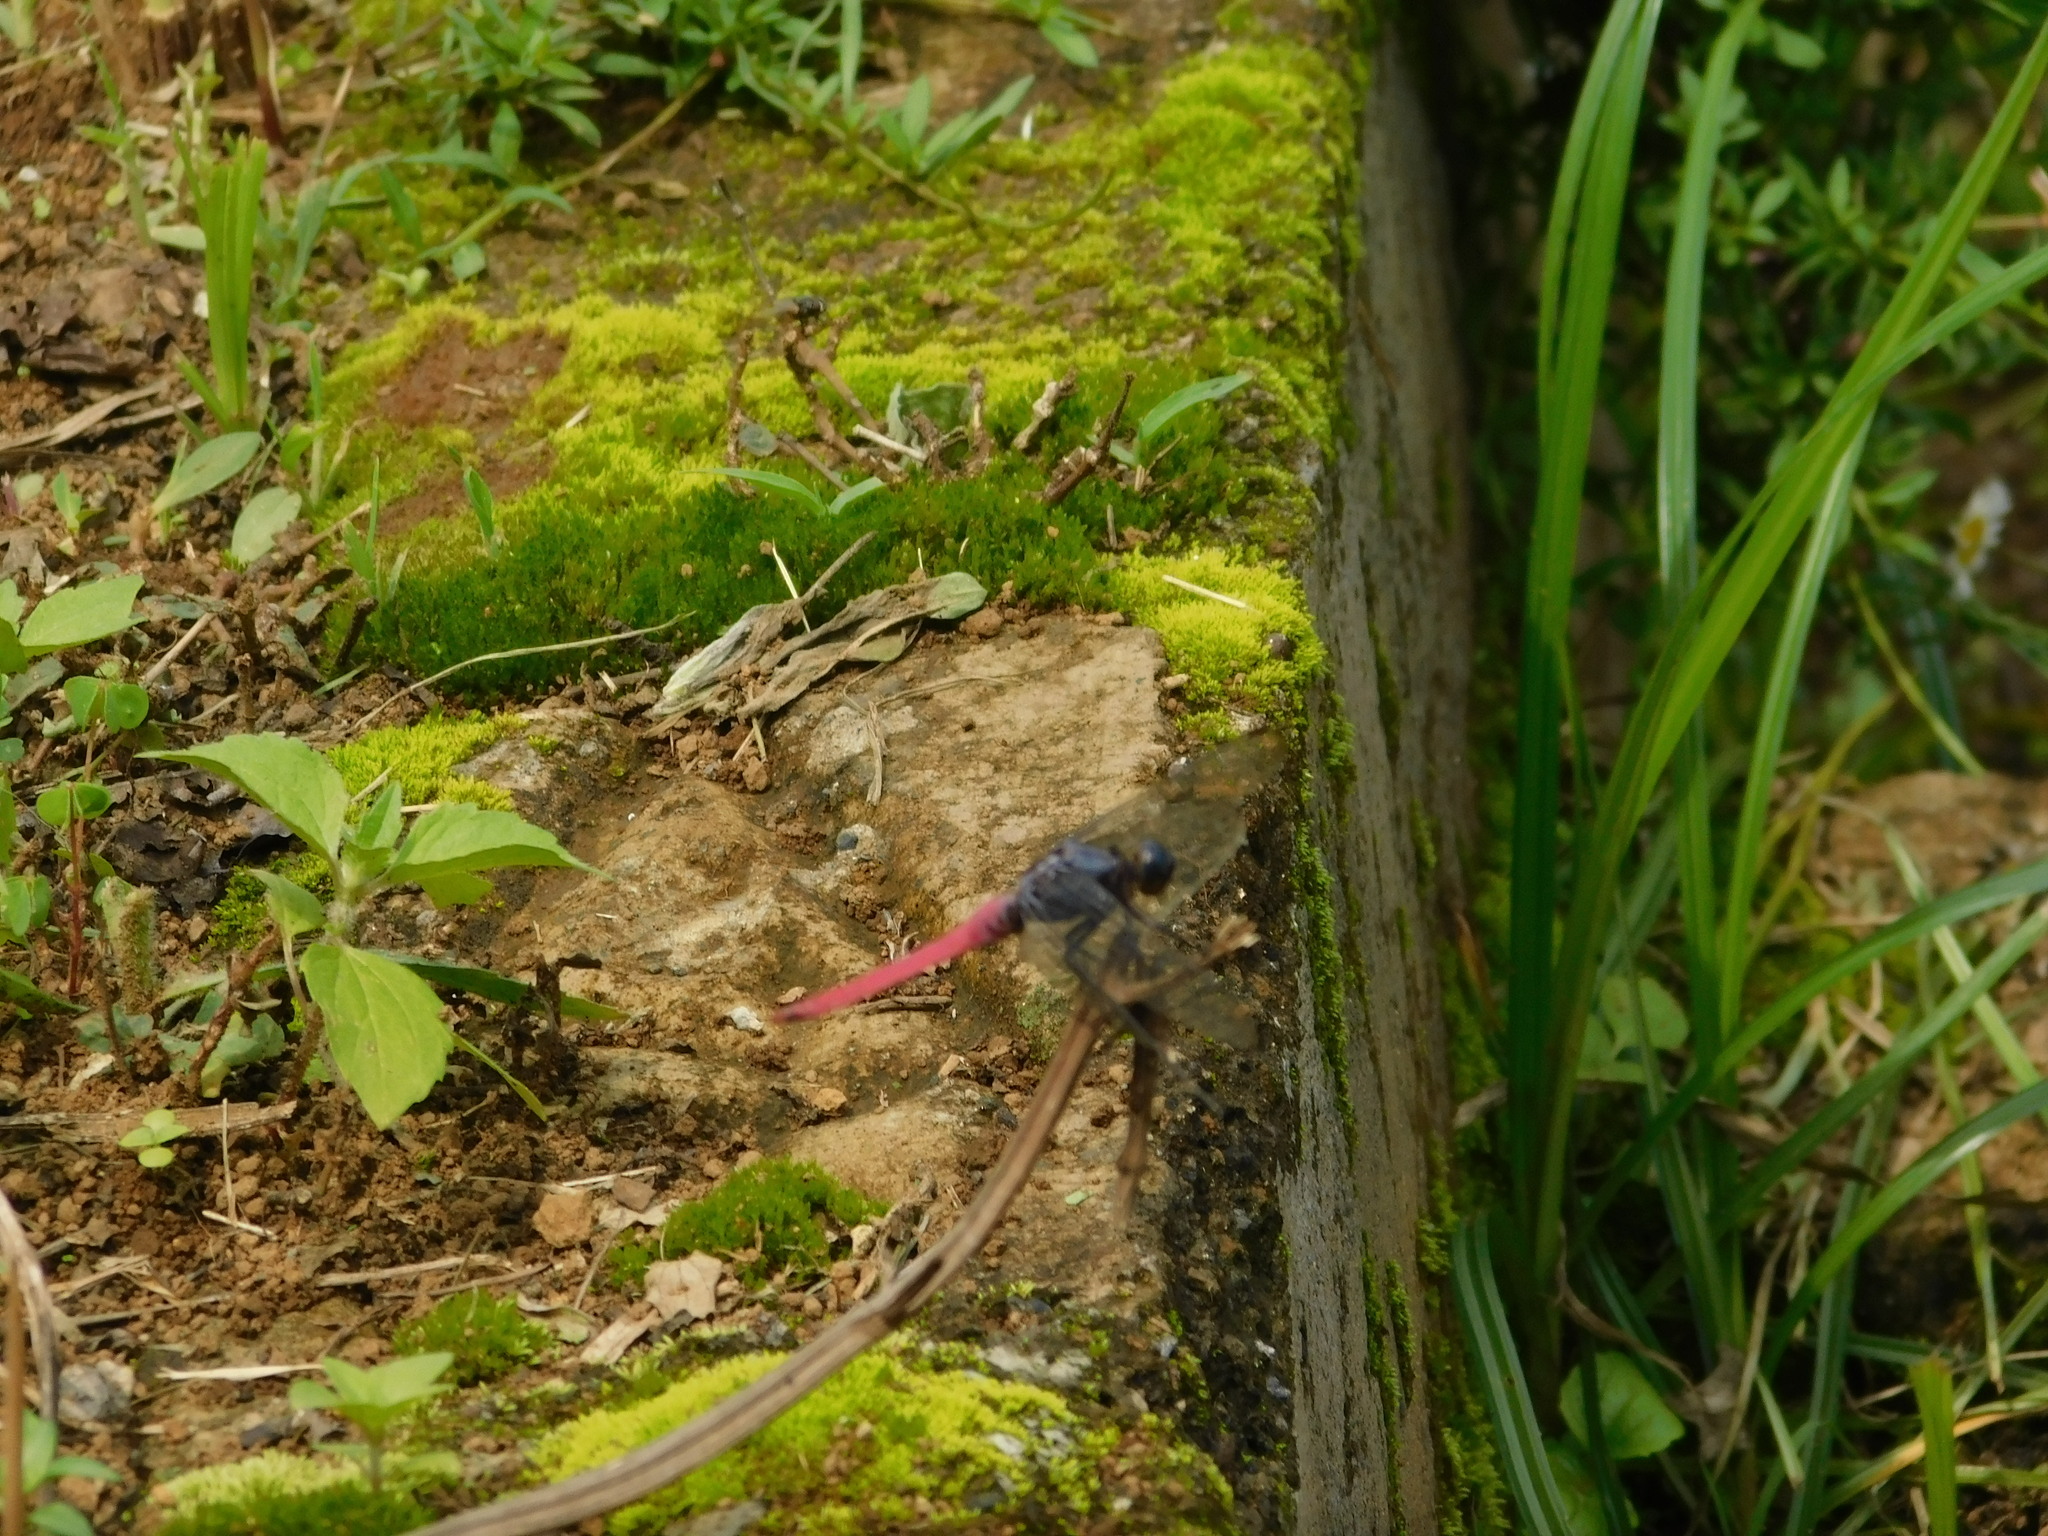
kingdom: Animalia
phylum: Arthropoda
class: Insecta
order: Odonata
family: Libellulidae
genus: Orthetrum
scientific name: Orthetrum pruinosum
